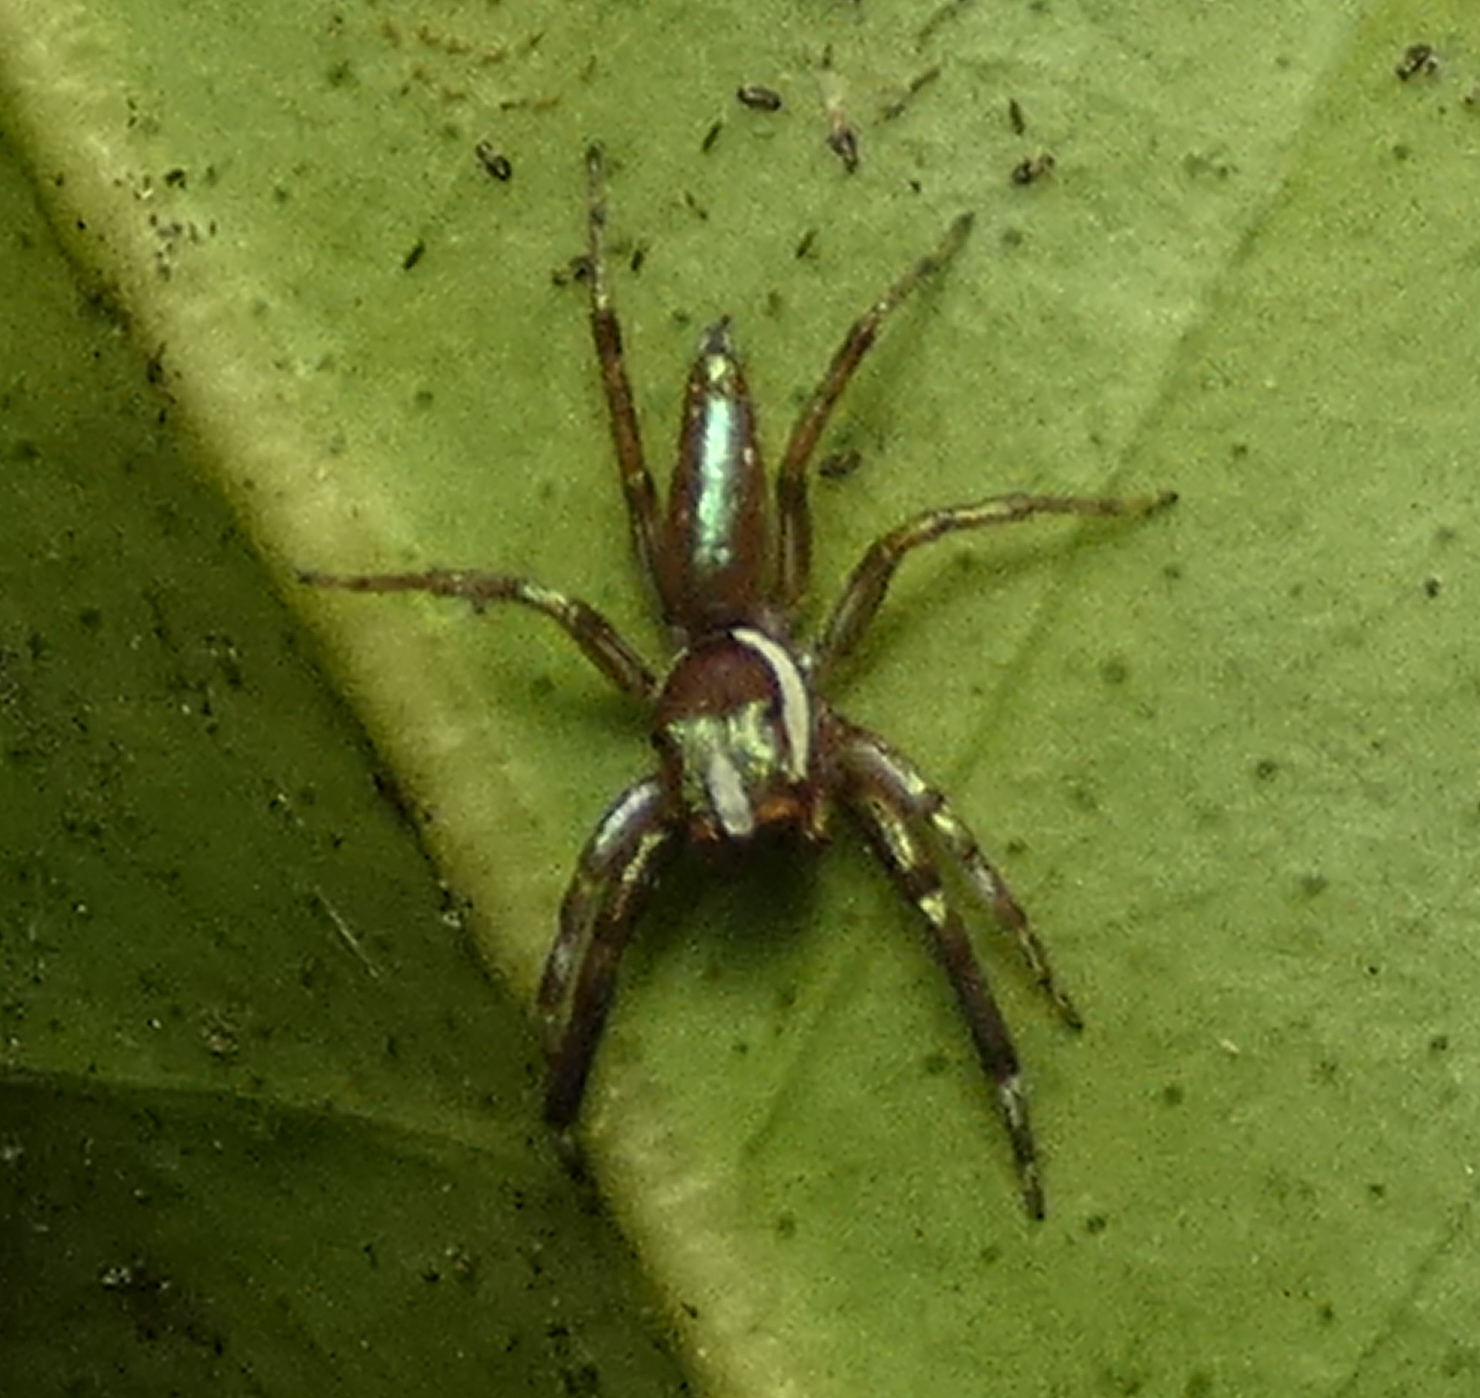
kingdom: Animalia
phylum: Arthropoda
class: Arachnida
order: Araneae
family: Salticidae
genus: Philira
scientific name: Philira micans
